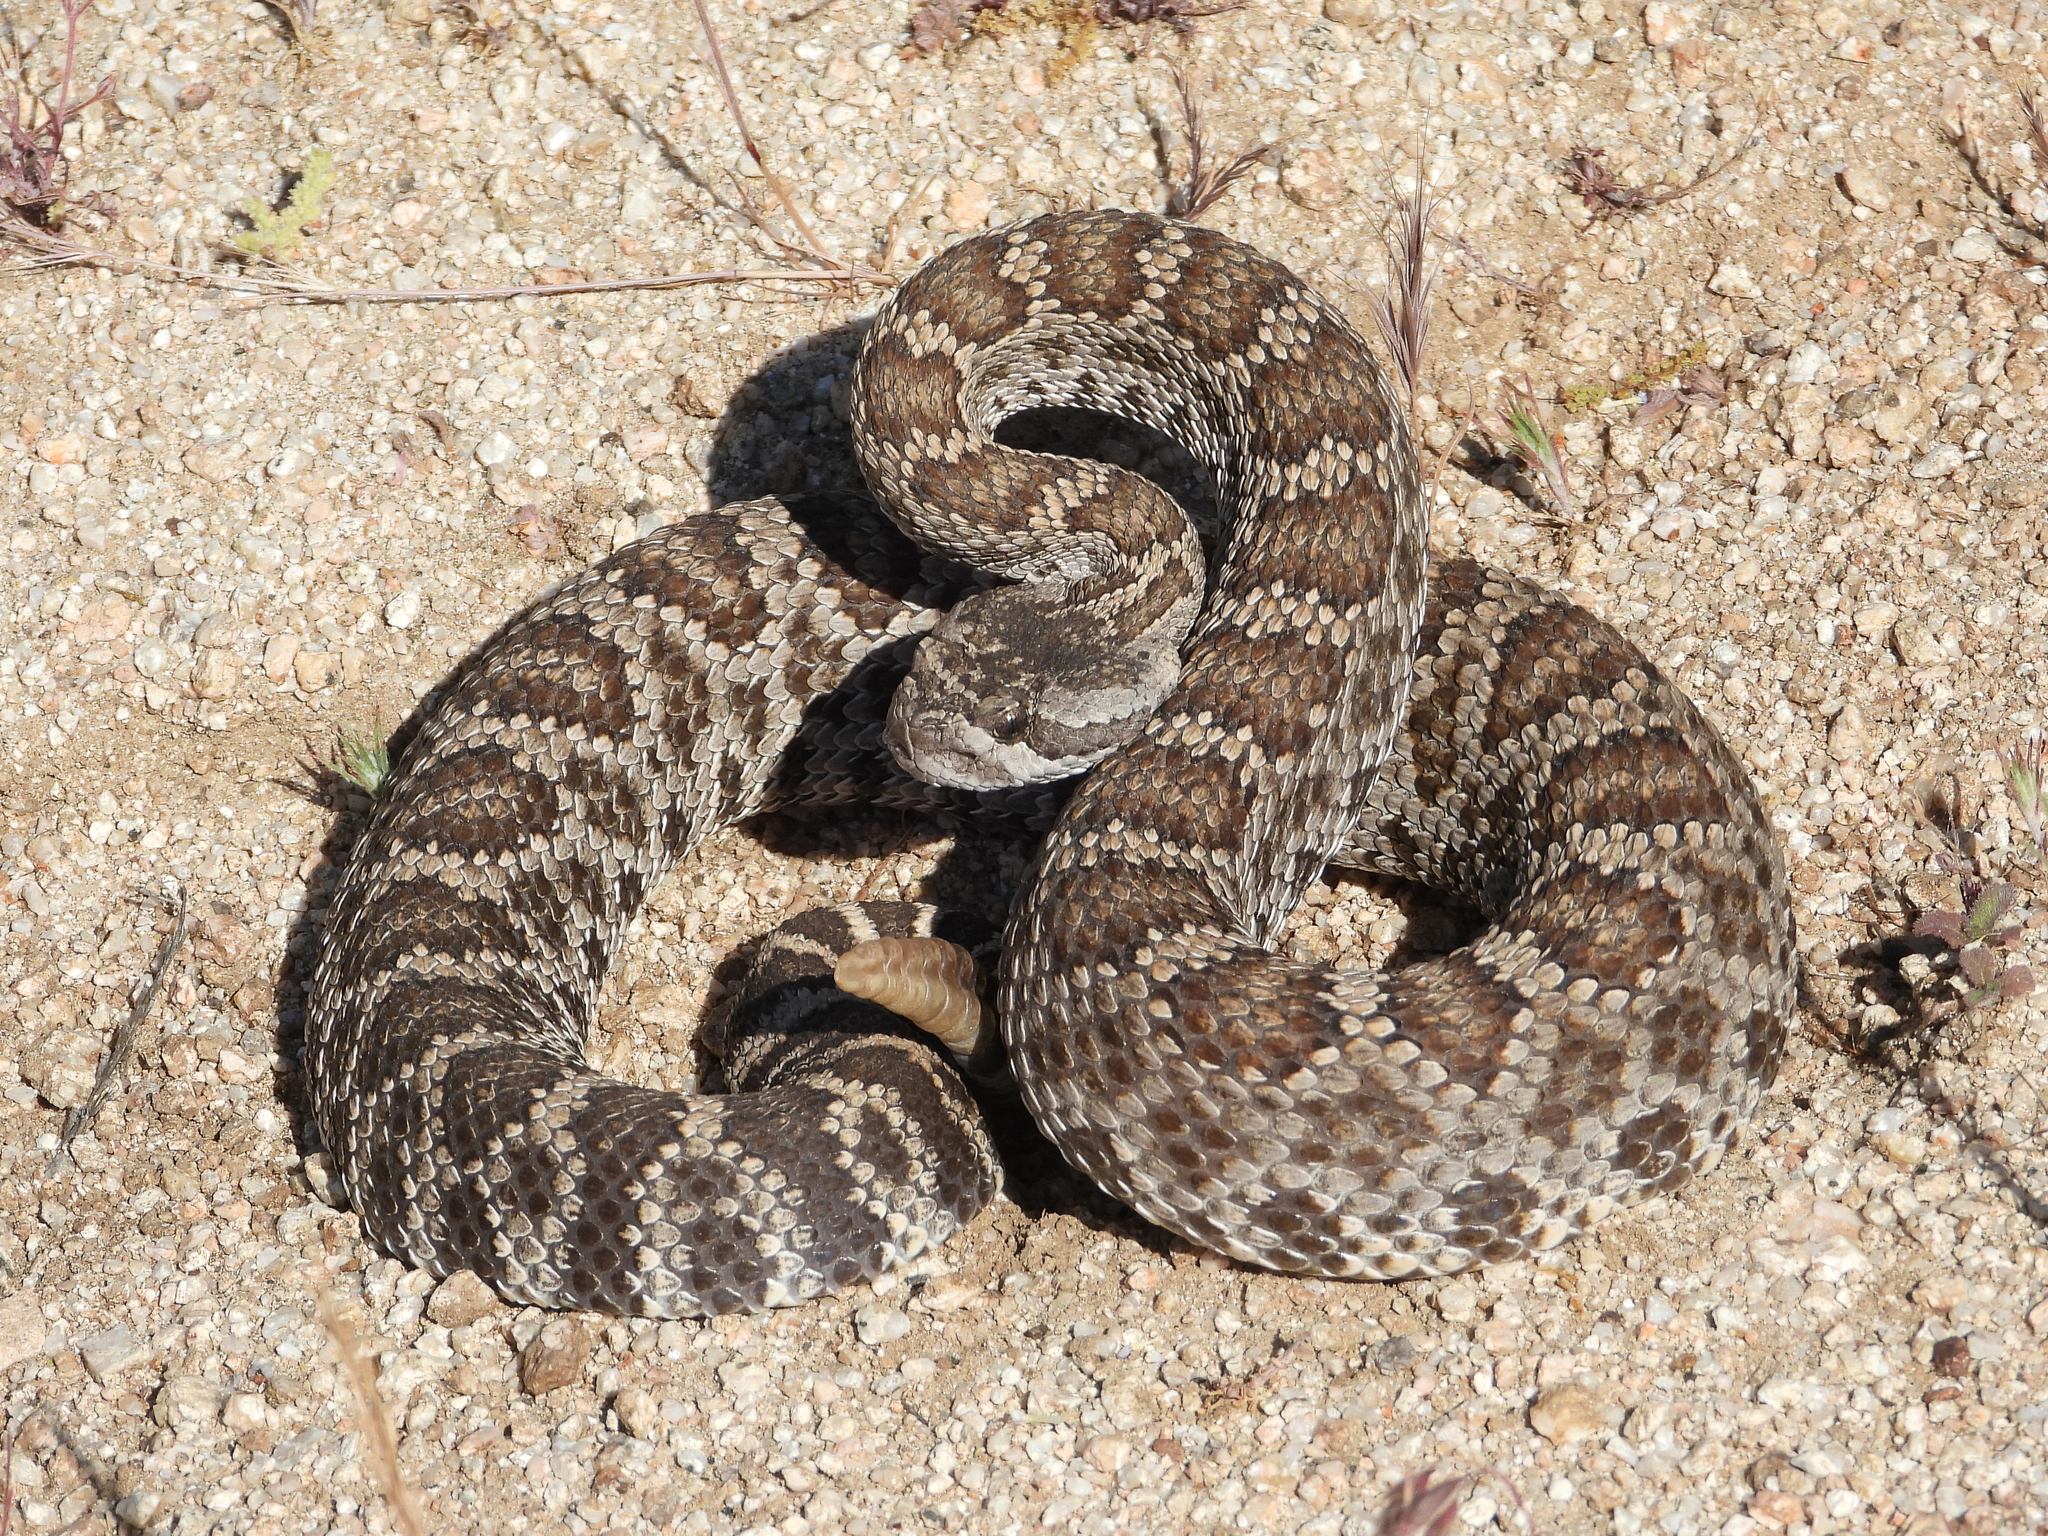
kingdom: Animalia
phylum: Chordata
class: Squamata
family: Viperidae
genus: Crotalus
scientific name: Crotalus oreganus
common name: Abyssus
